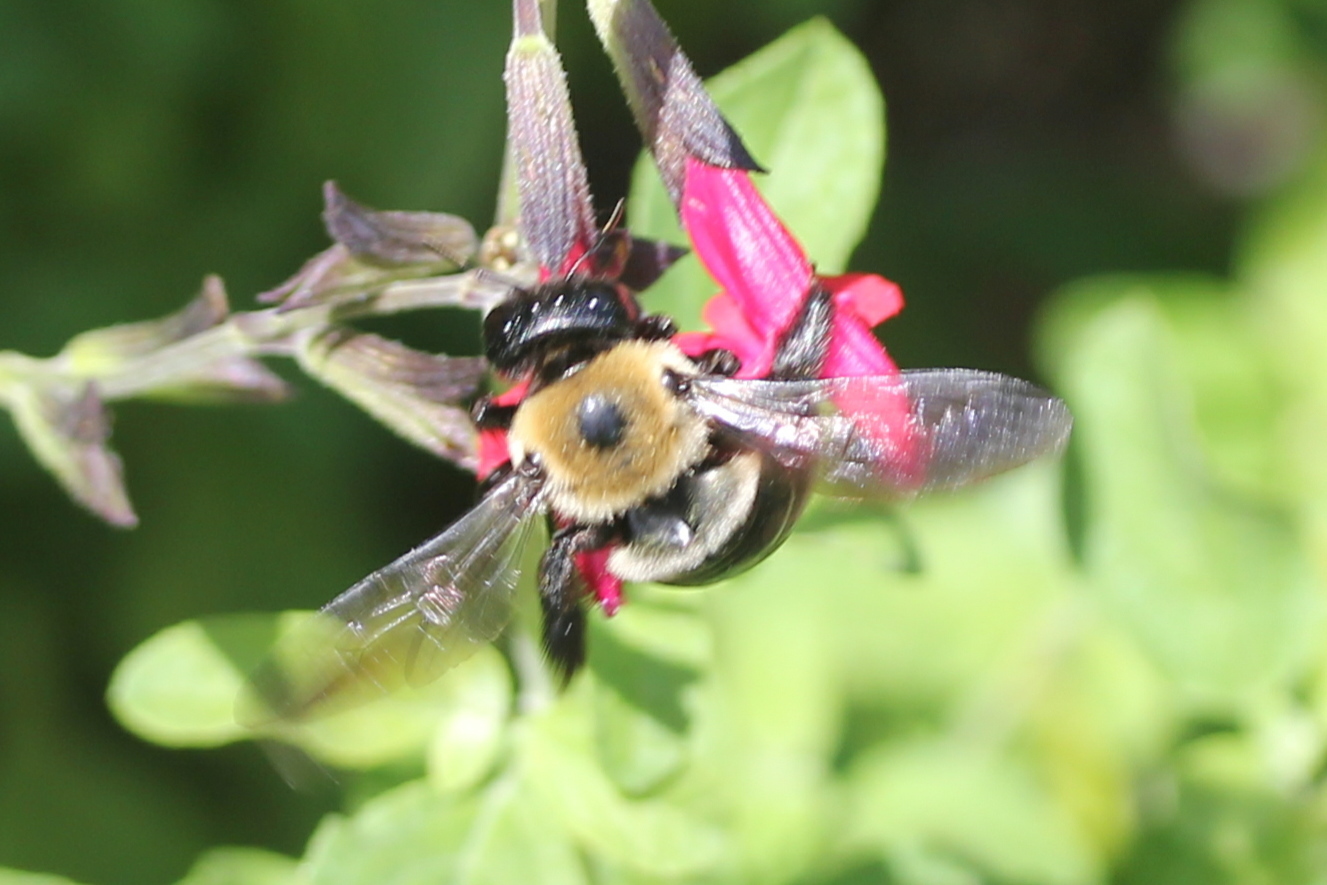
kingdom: Animalia
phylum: Arthropoda
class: Insecta
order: Hymenoptera
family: Apidae
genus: Xylocopa
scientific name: Xylocopa virginica
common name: Carpenter bee
